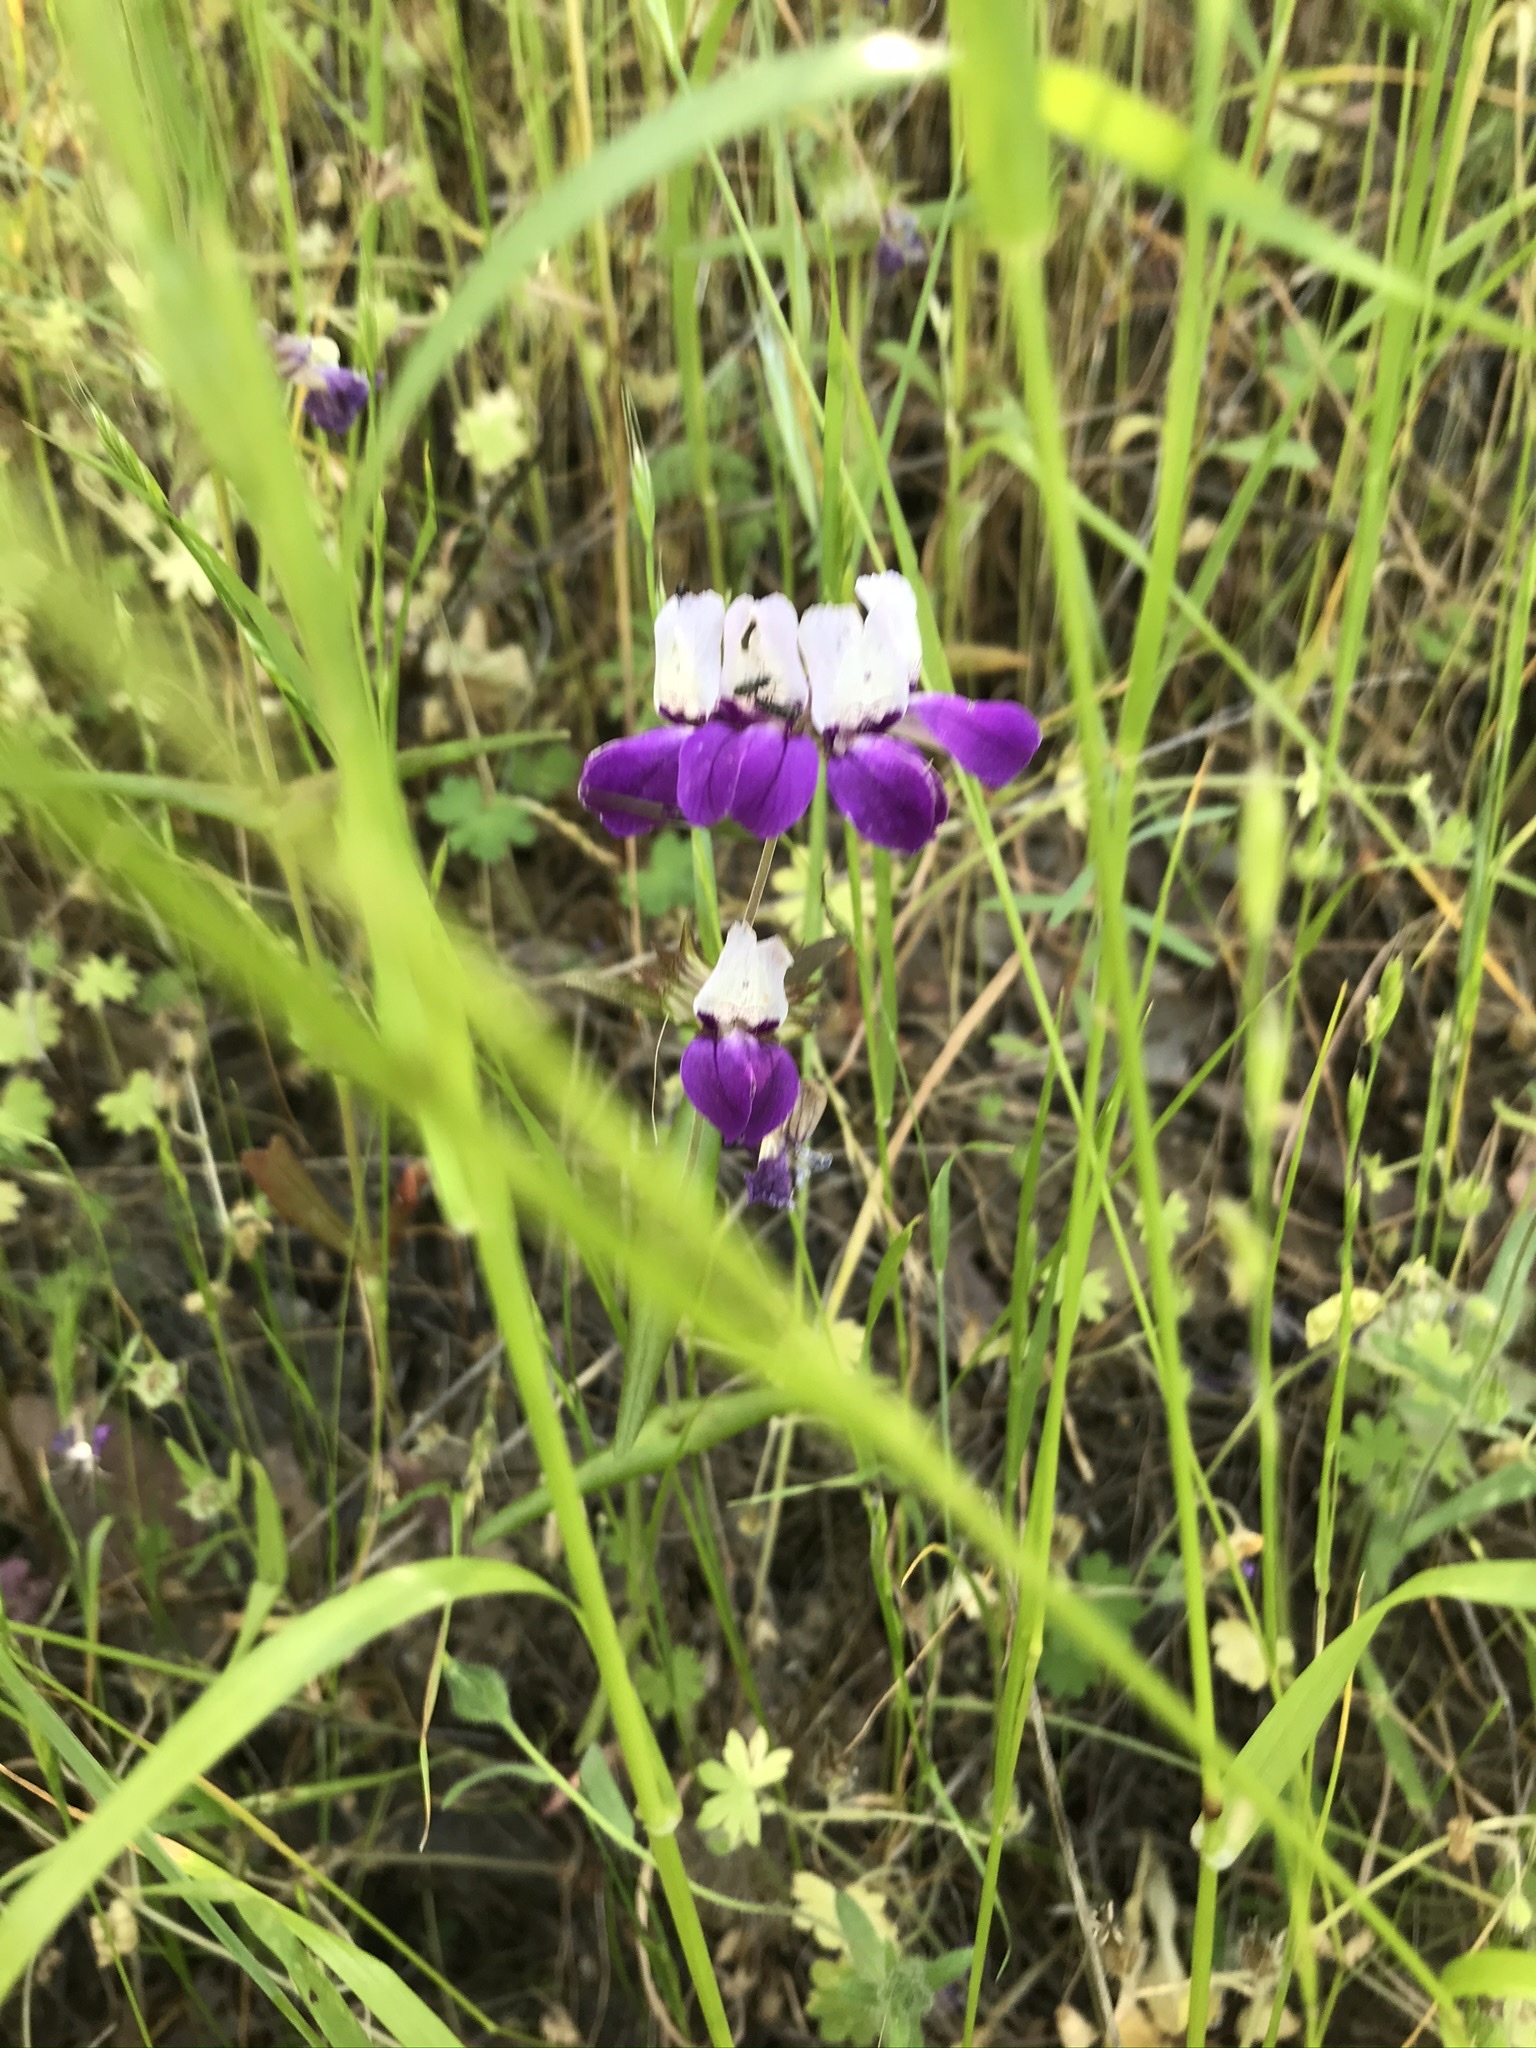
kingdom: Plantae
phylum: Tracheophyta
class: Magnoliopsida
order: Lamiales
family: Plantaginaceae
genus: Collinsia
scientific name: Collinsia heterophylla
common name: Chinese-houses
